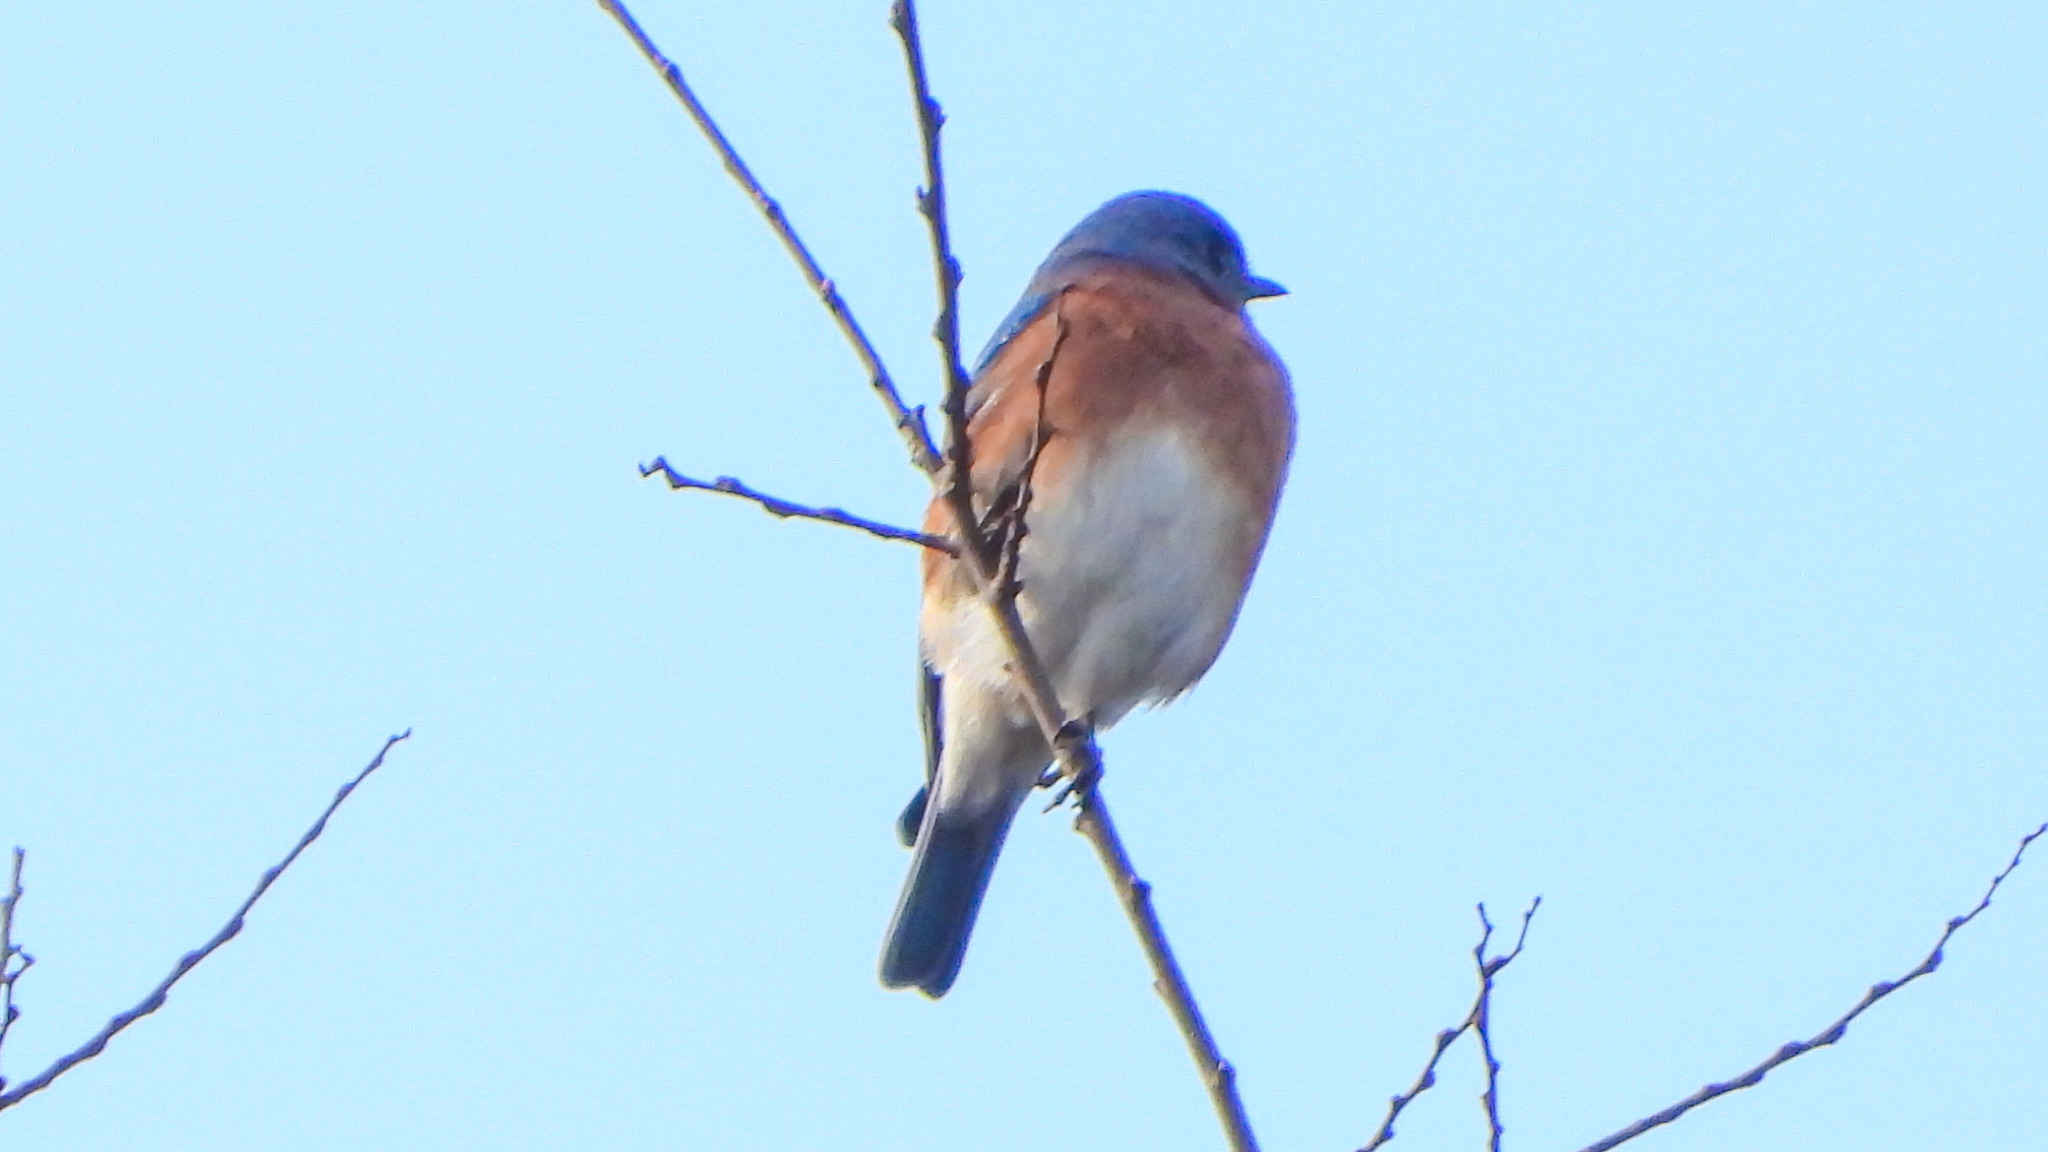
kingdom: Animalia
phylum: Chordata
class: Aves
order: Passeriformes
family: Turdidae
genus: Sialia
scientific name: Sialia sialis
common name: Eastern bluebird
